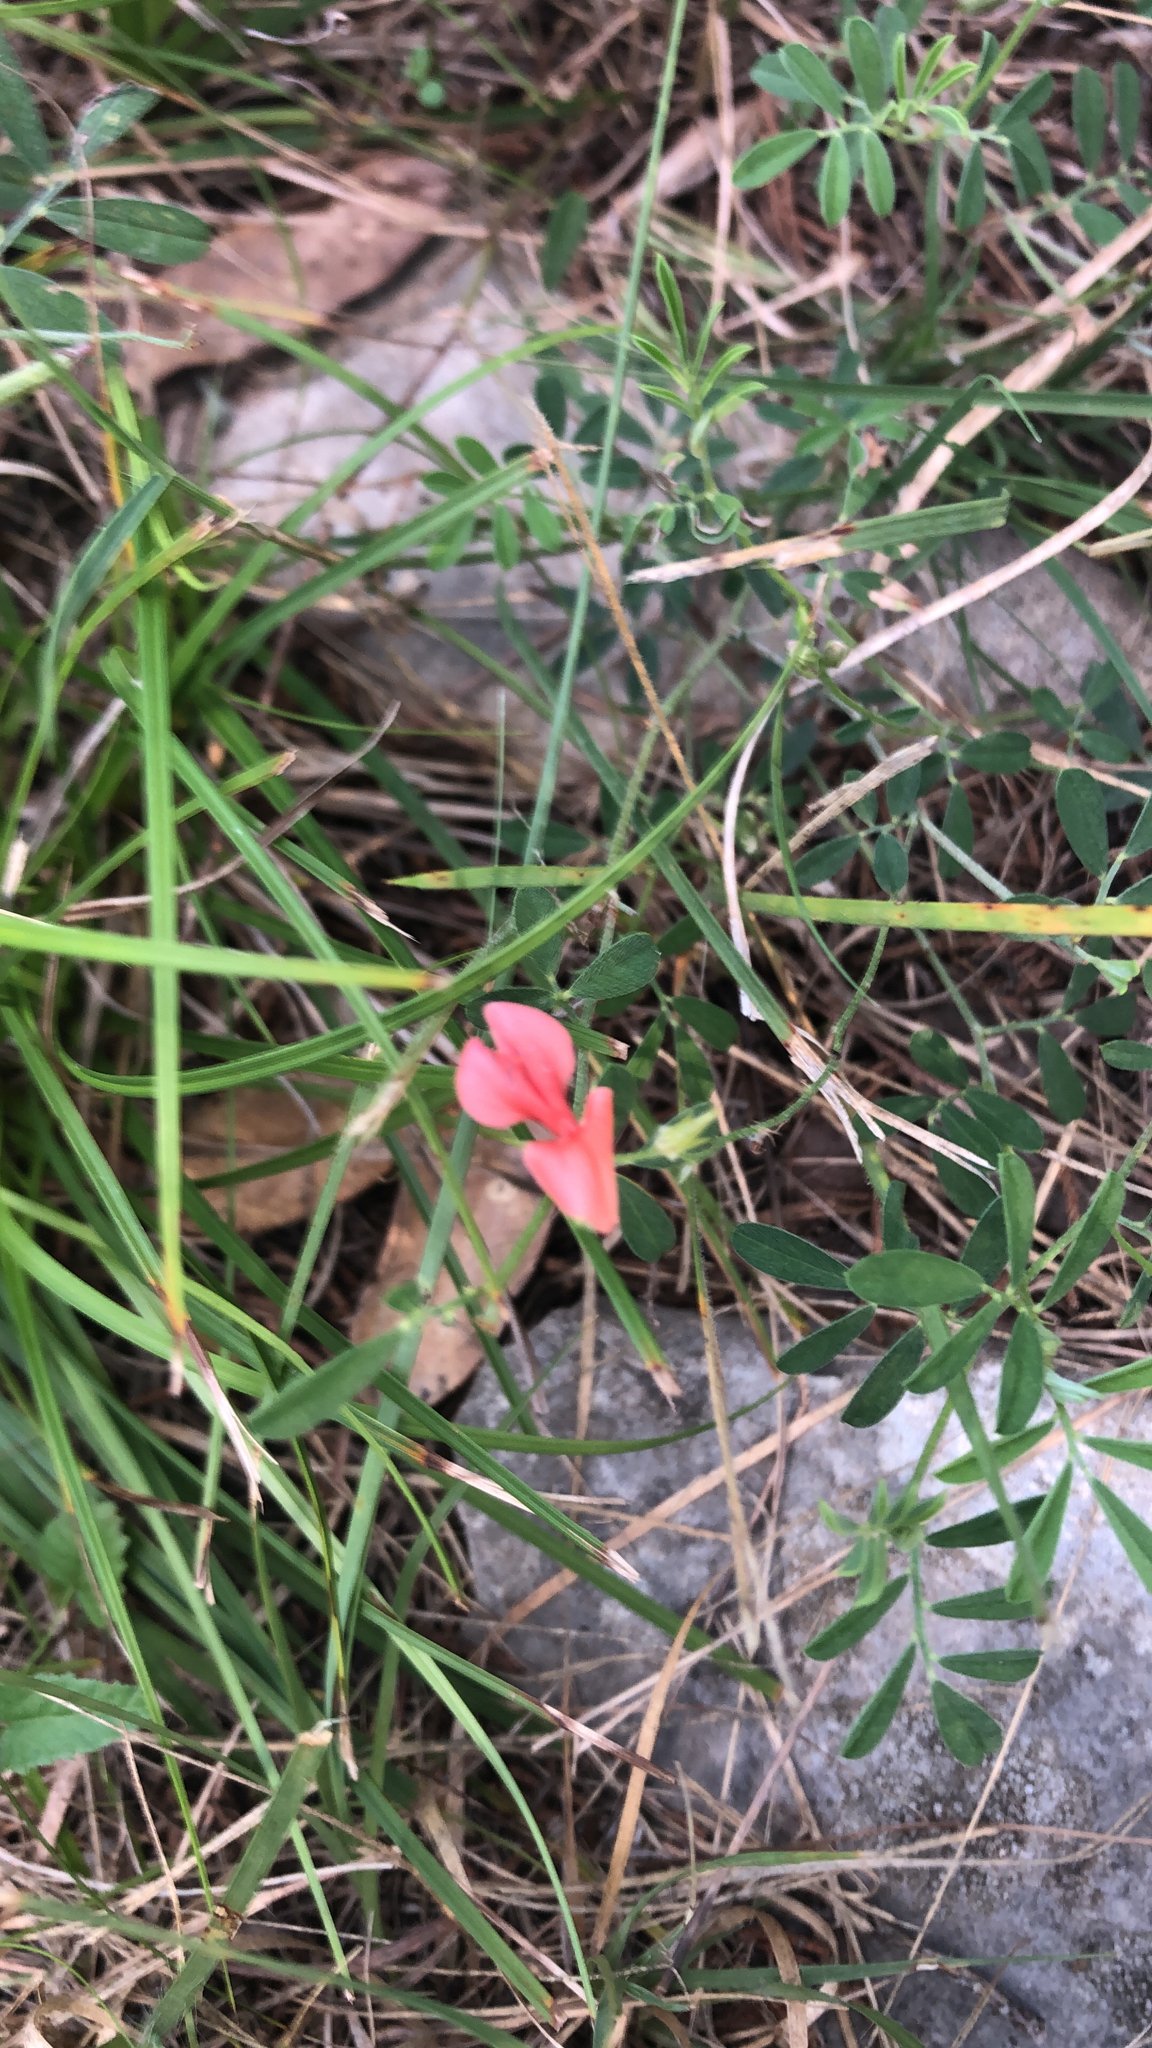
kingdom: Plantae
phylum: Tracheophyta
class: Magnoliopsida
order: Fabales
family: Fabaceae
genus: Indigofera
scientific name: Indigofera miniata
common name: Coast indigo
